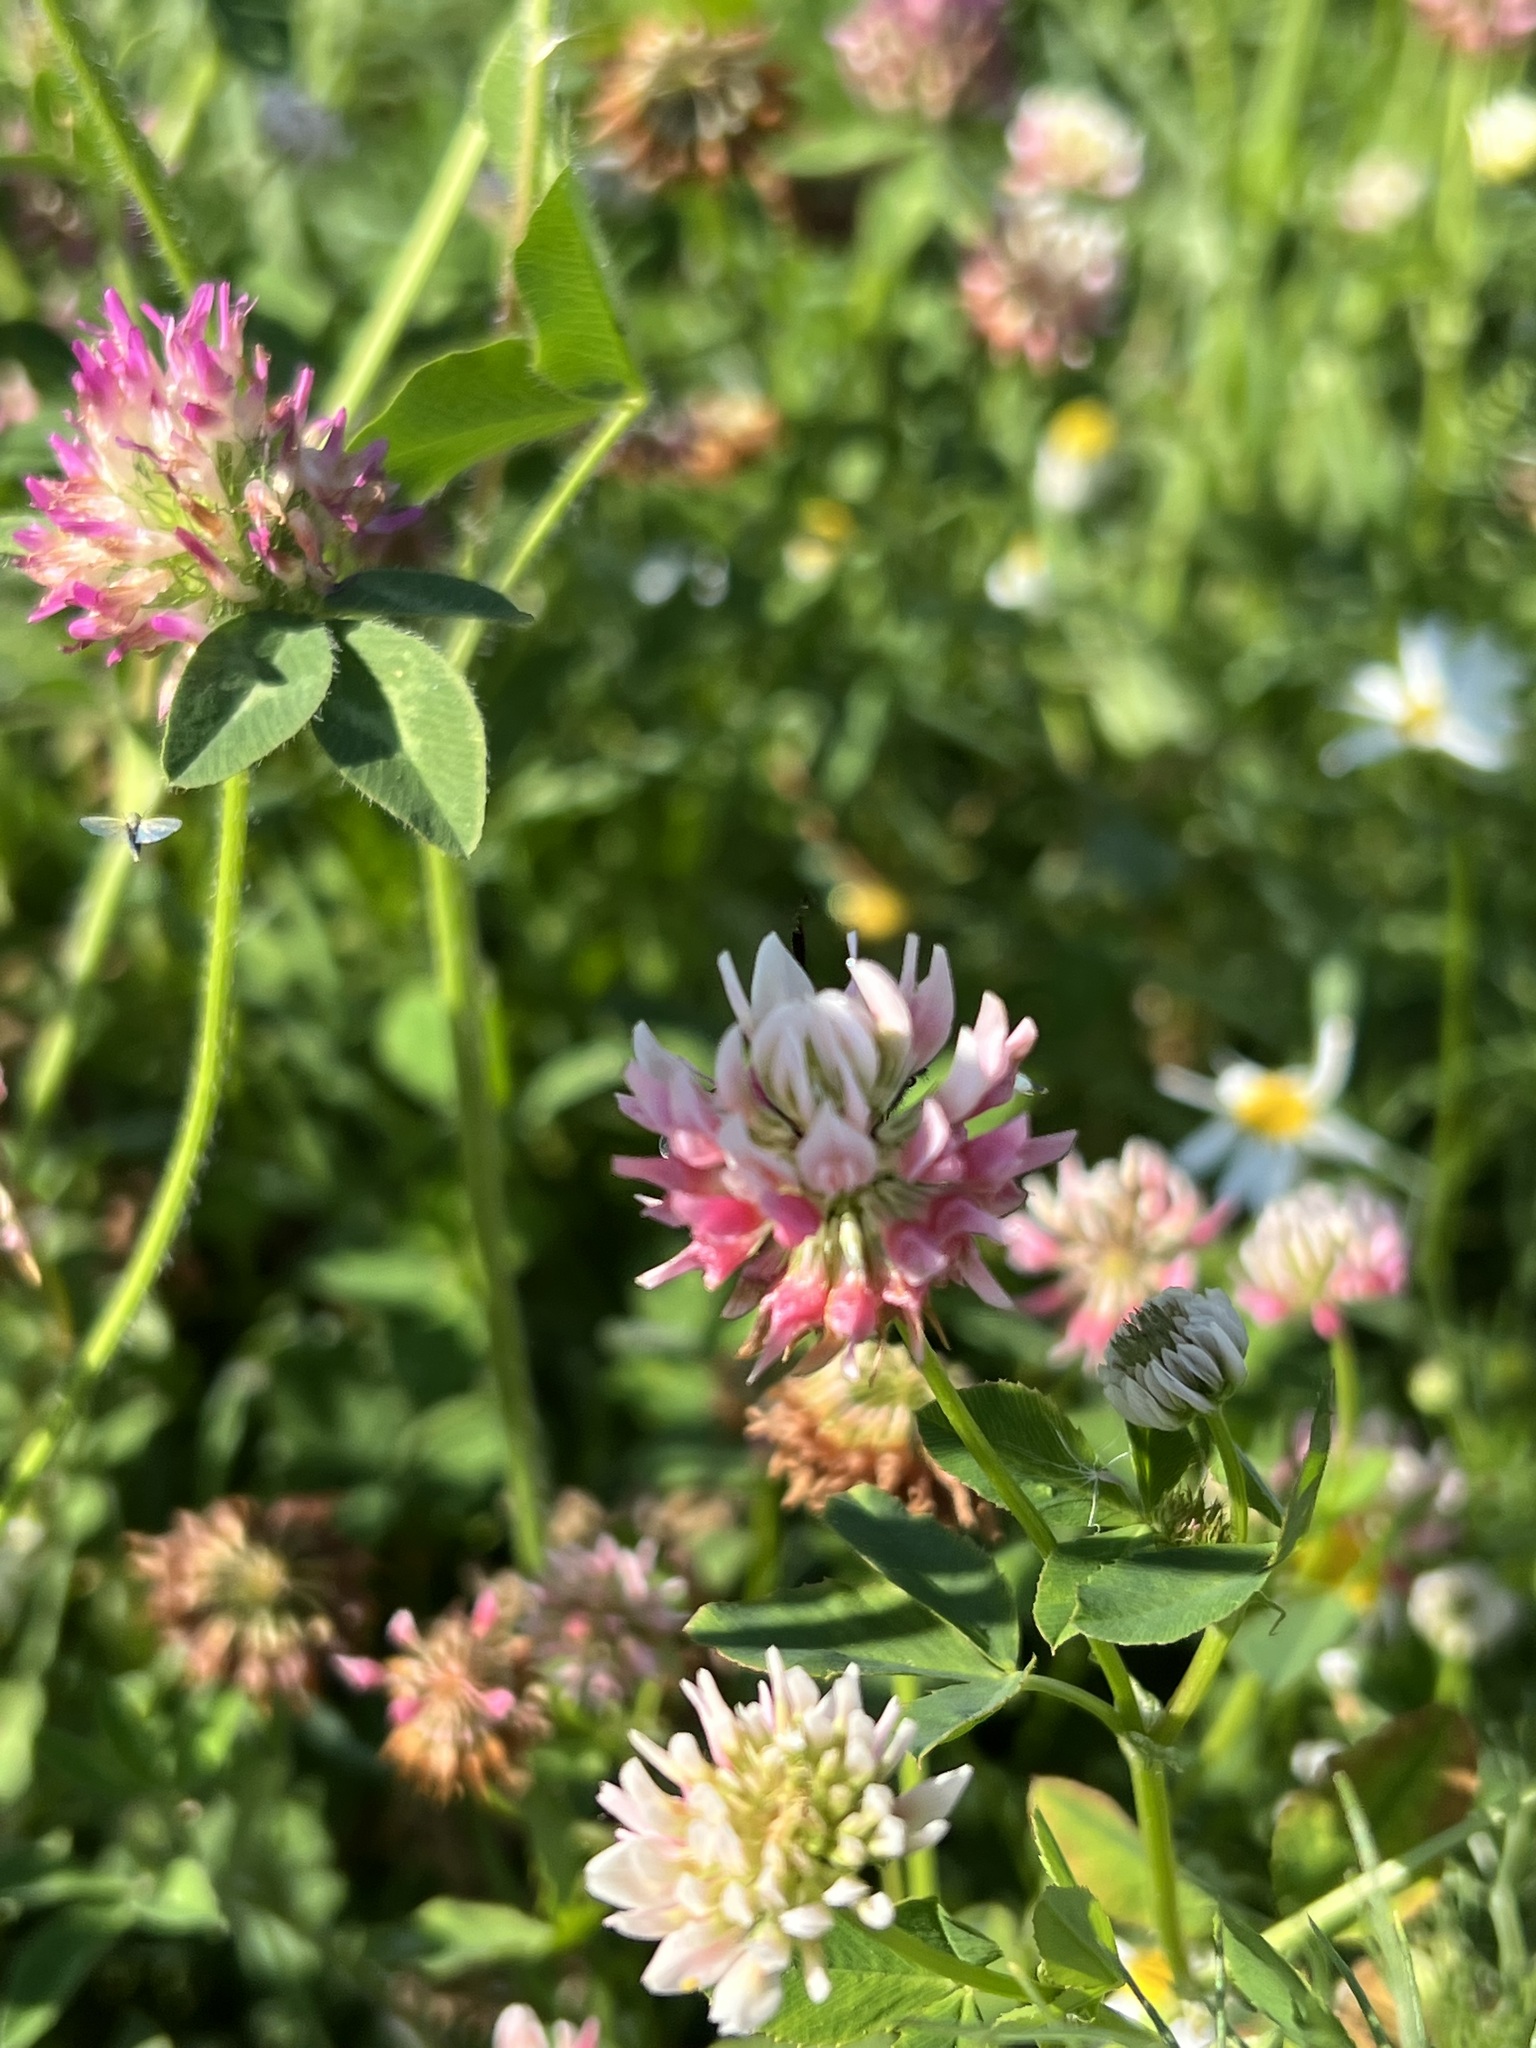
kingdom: Plantae
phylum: Tracheophyta
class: Magnoliopsida
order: Fabales
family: Fabaceae
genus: Trifolium
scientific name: Trifolium hybridum
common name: Alsike clover
